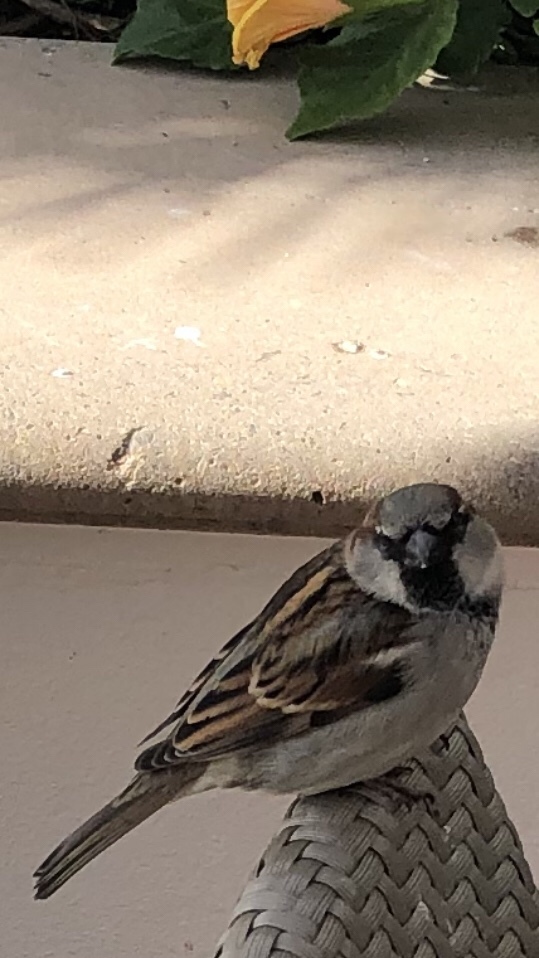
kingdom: Animalia
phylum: Chordata
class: Aves
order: Passeriformes
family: Passeridae
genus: Passer
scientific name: Passer domesticus
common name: House sparrow
